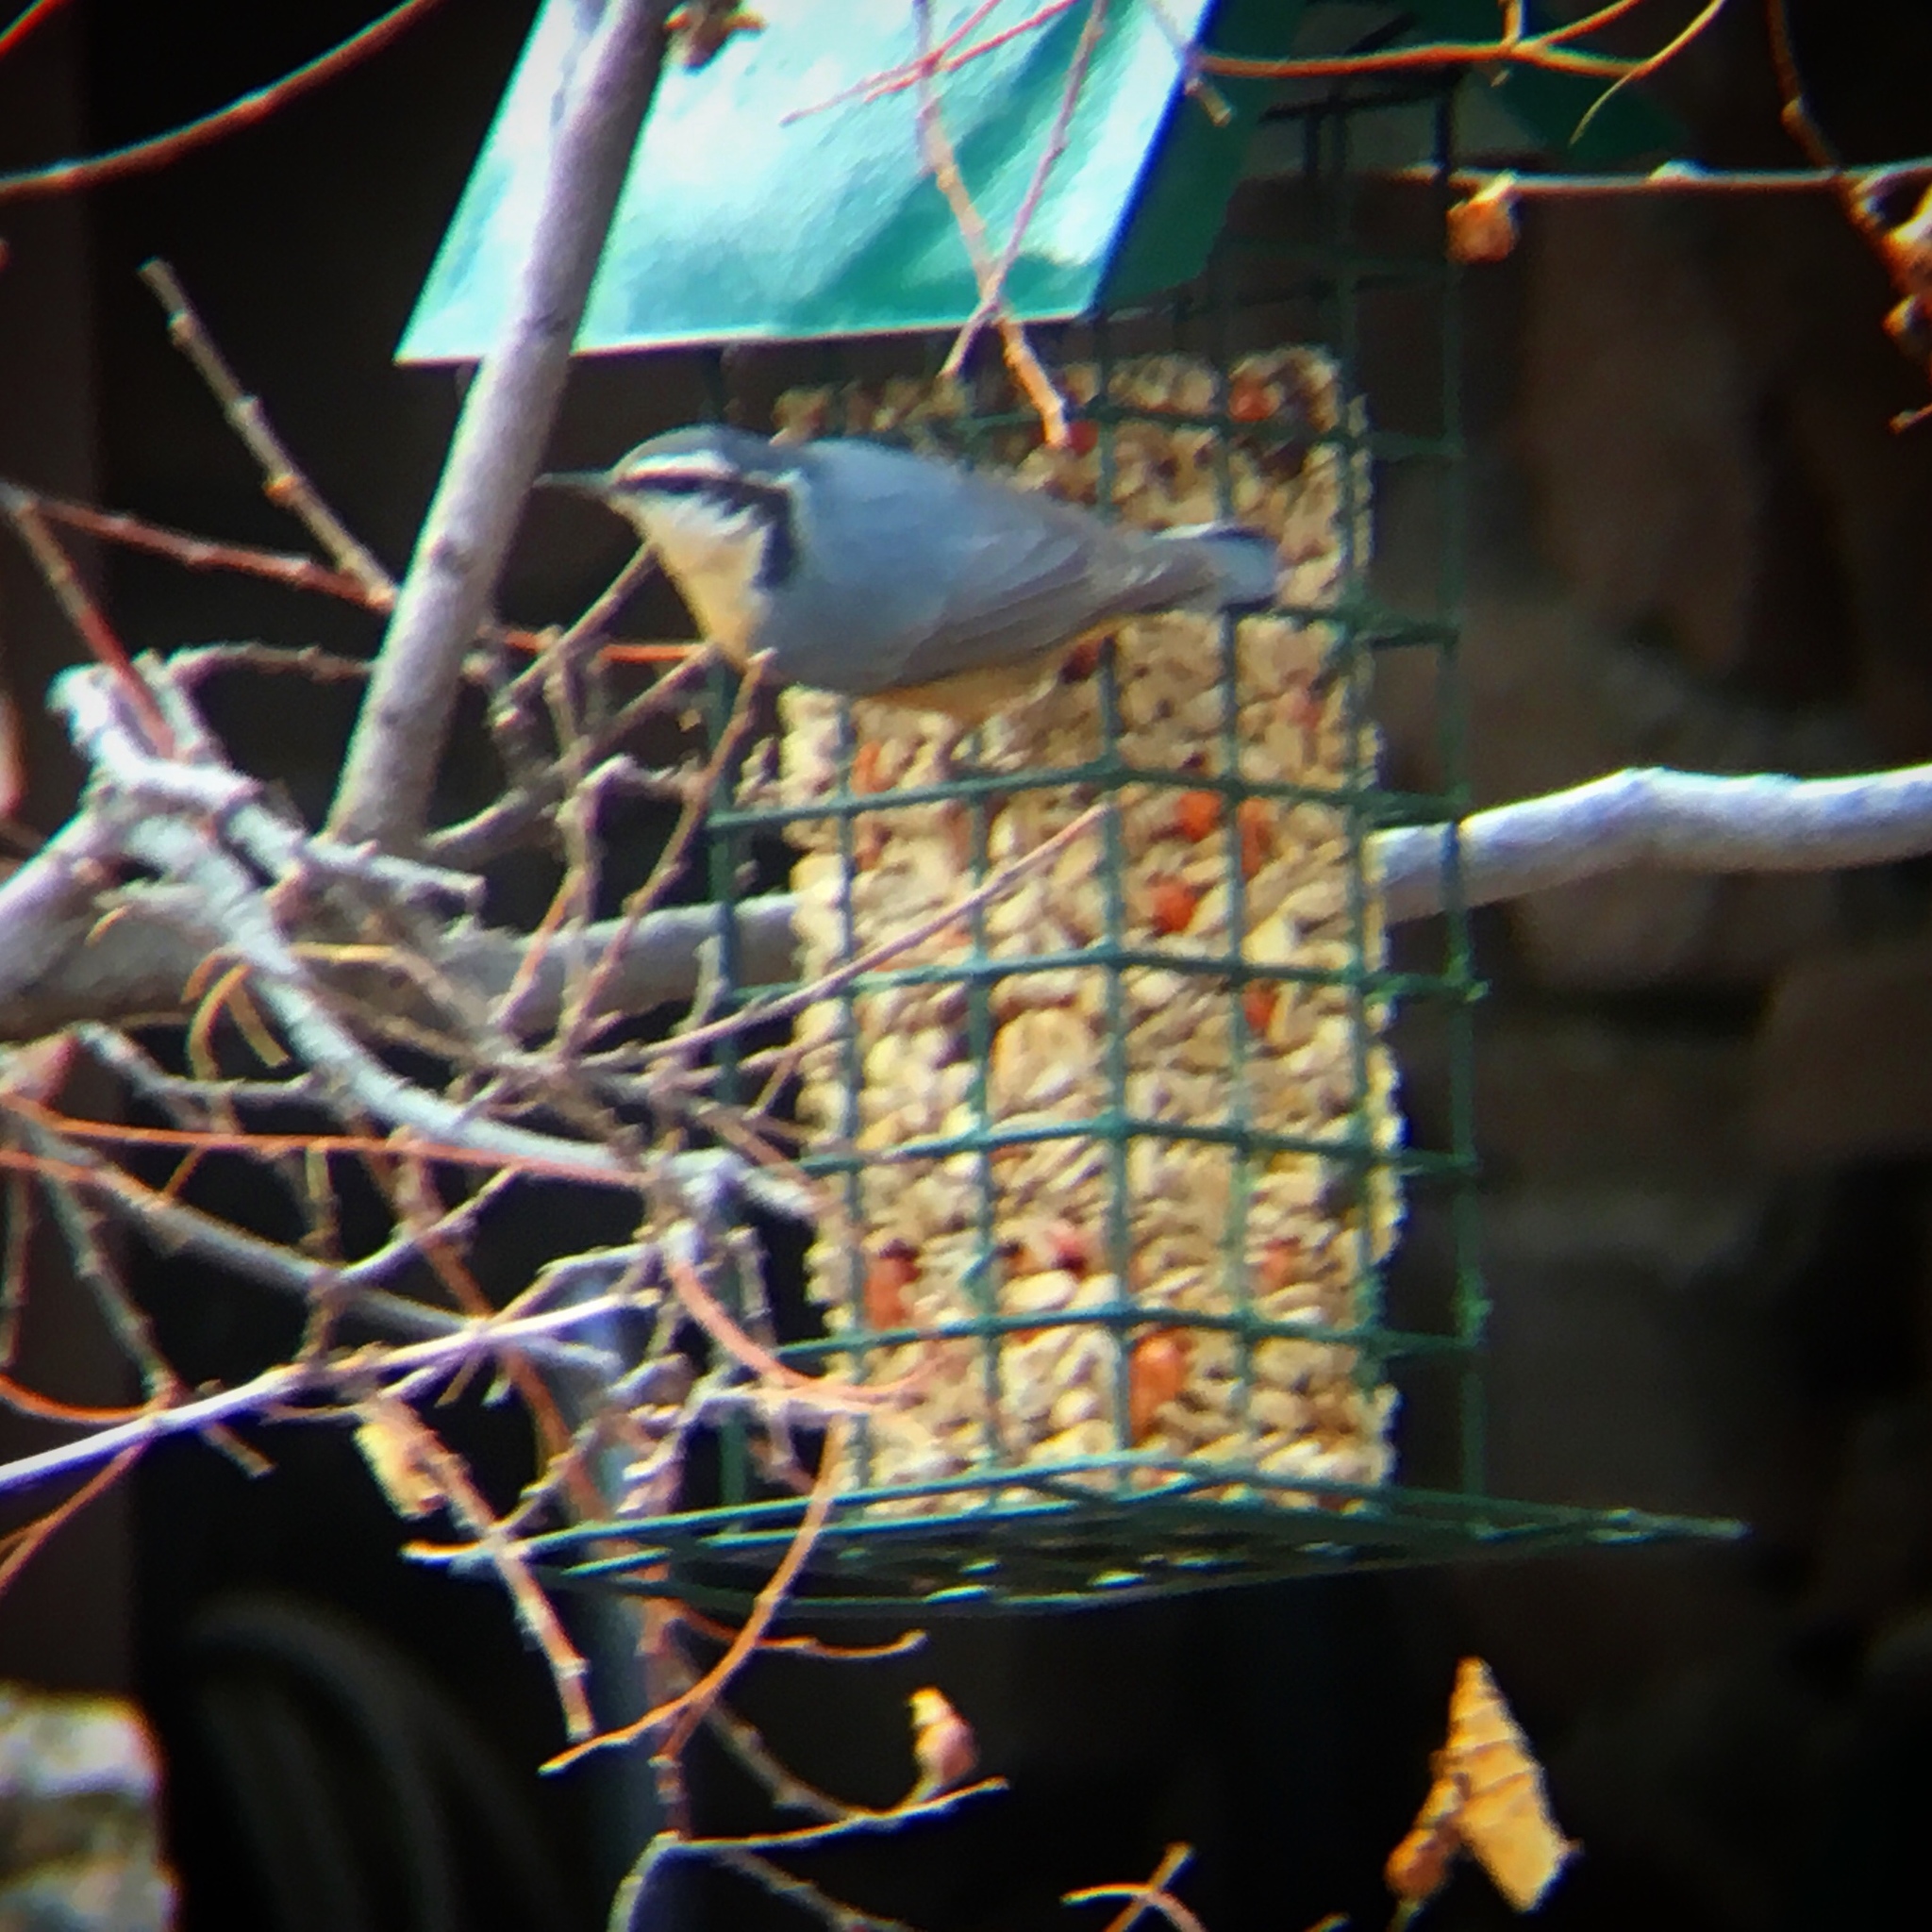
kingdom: Animalia
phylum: Chordata
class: Aves
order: Passeriformes
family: Sittidae
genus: Sitta
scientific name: Sitta canadensis
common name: Red-breasted nuthatch
